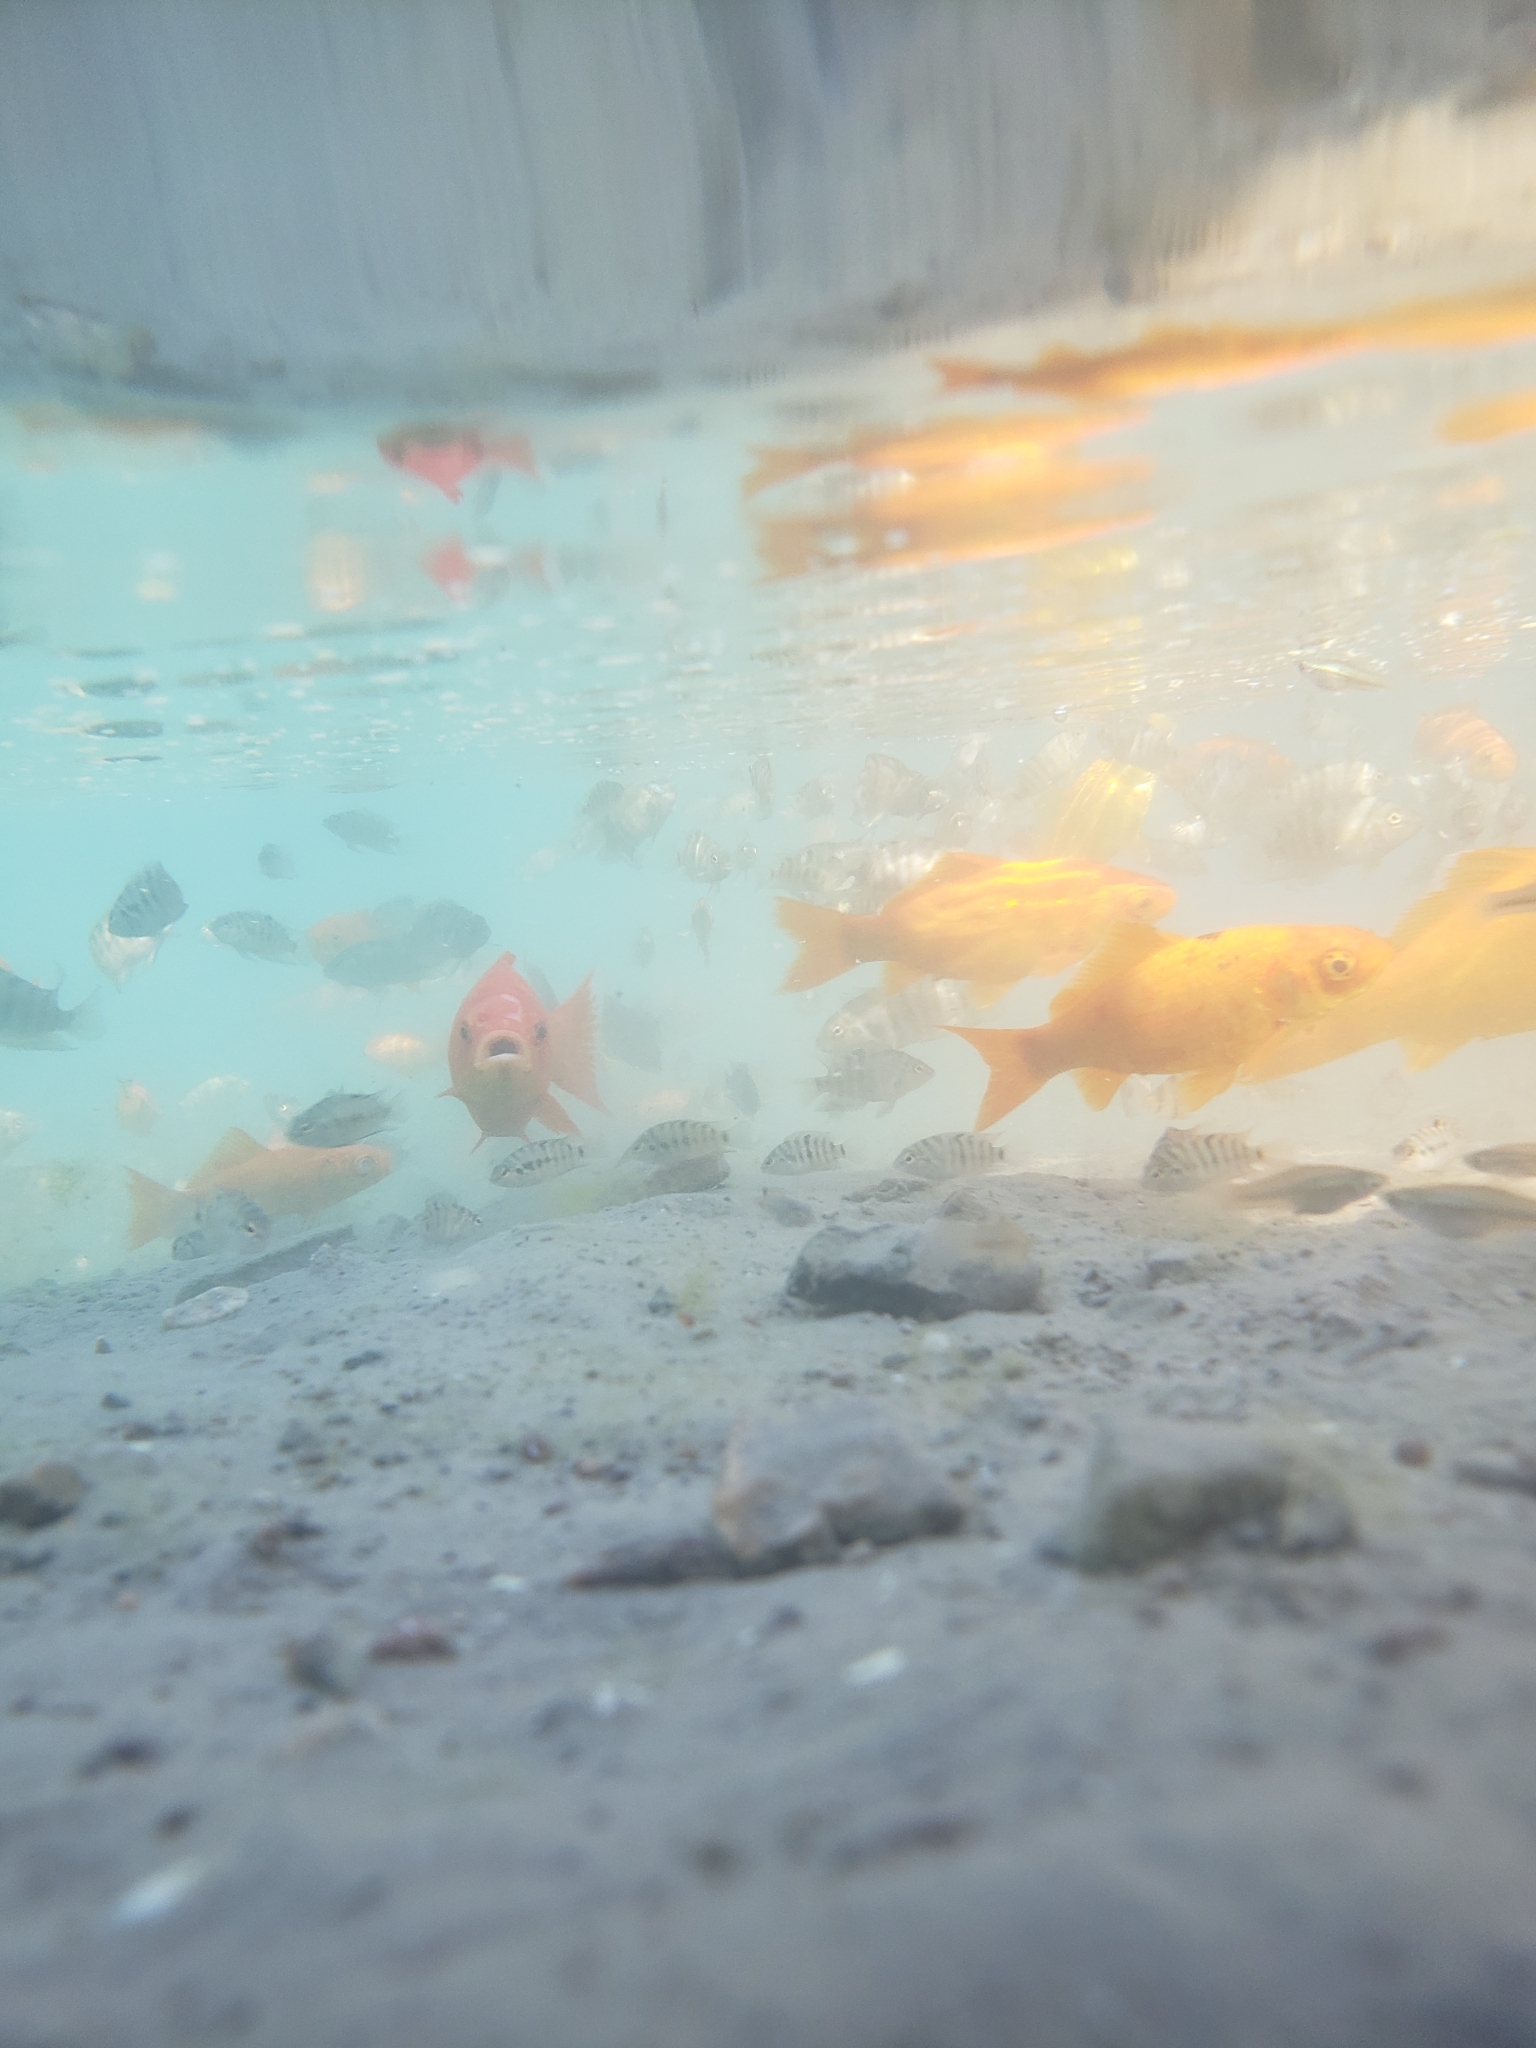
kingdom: Animalia
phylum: Chordata
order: Cypriniformes
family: Cyprinidae
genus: Carassius
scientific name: Carassius auratus
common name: Goldfish
